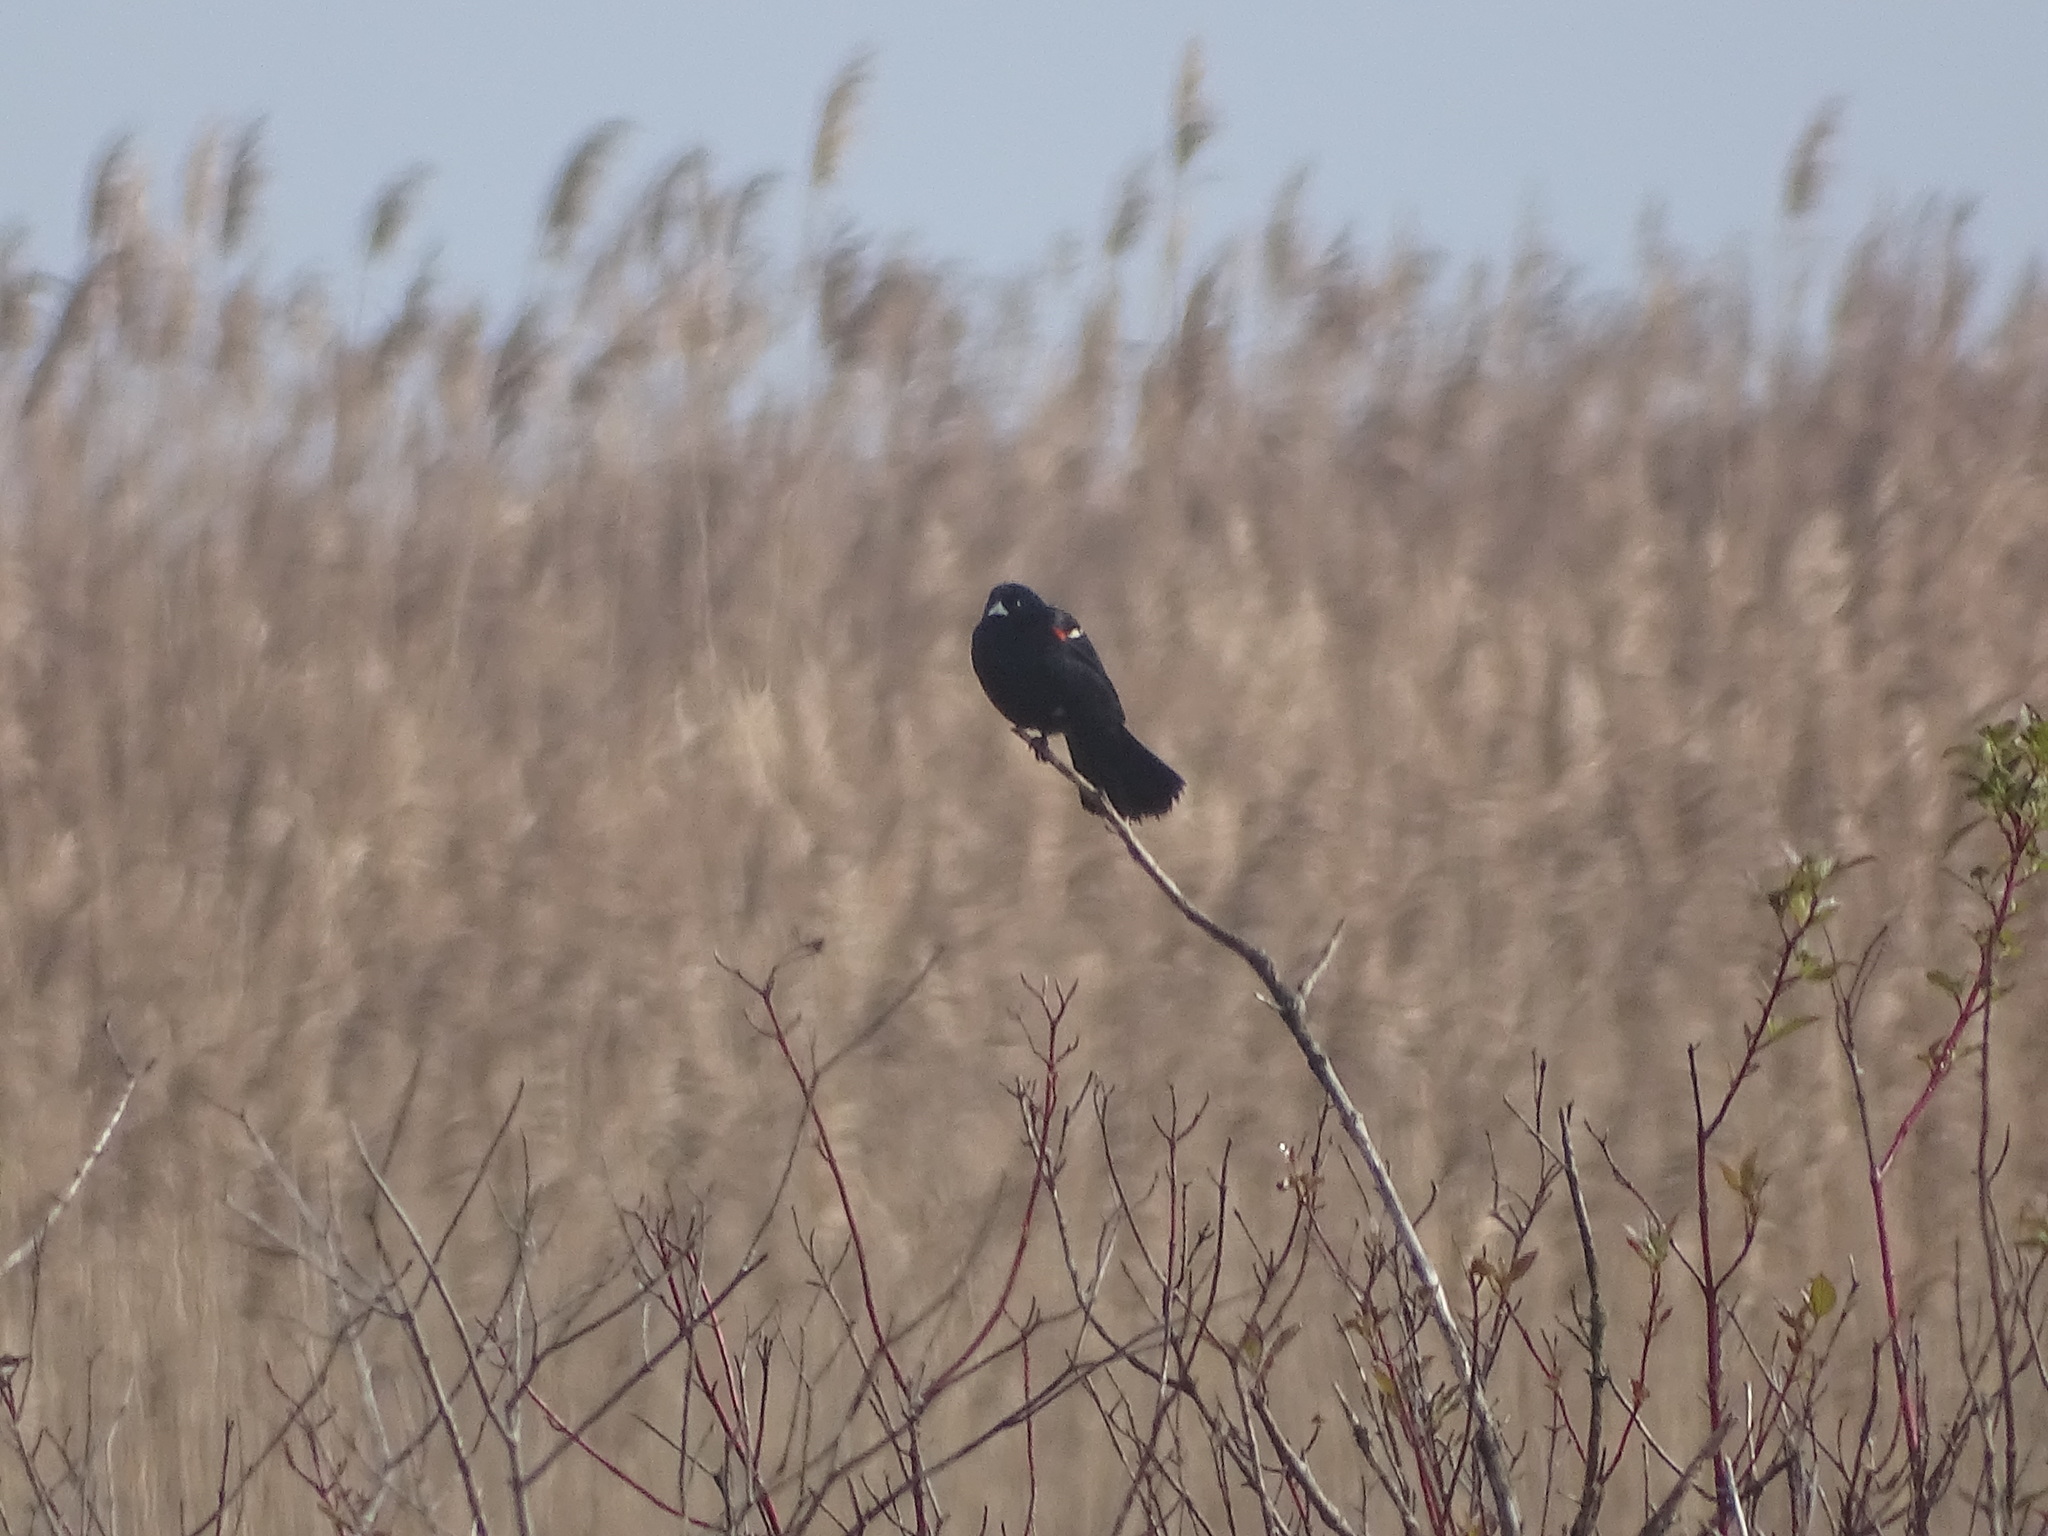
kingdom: Animalia
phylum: Chordata
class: Aves
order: Passeriformes
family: Icteridae
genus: Agelaius
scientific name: Agelaius phoeniceus
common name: Red-winged blackbird
